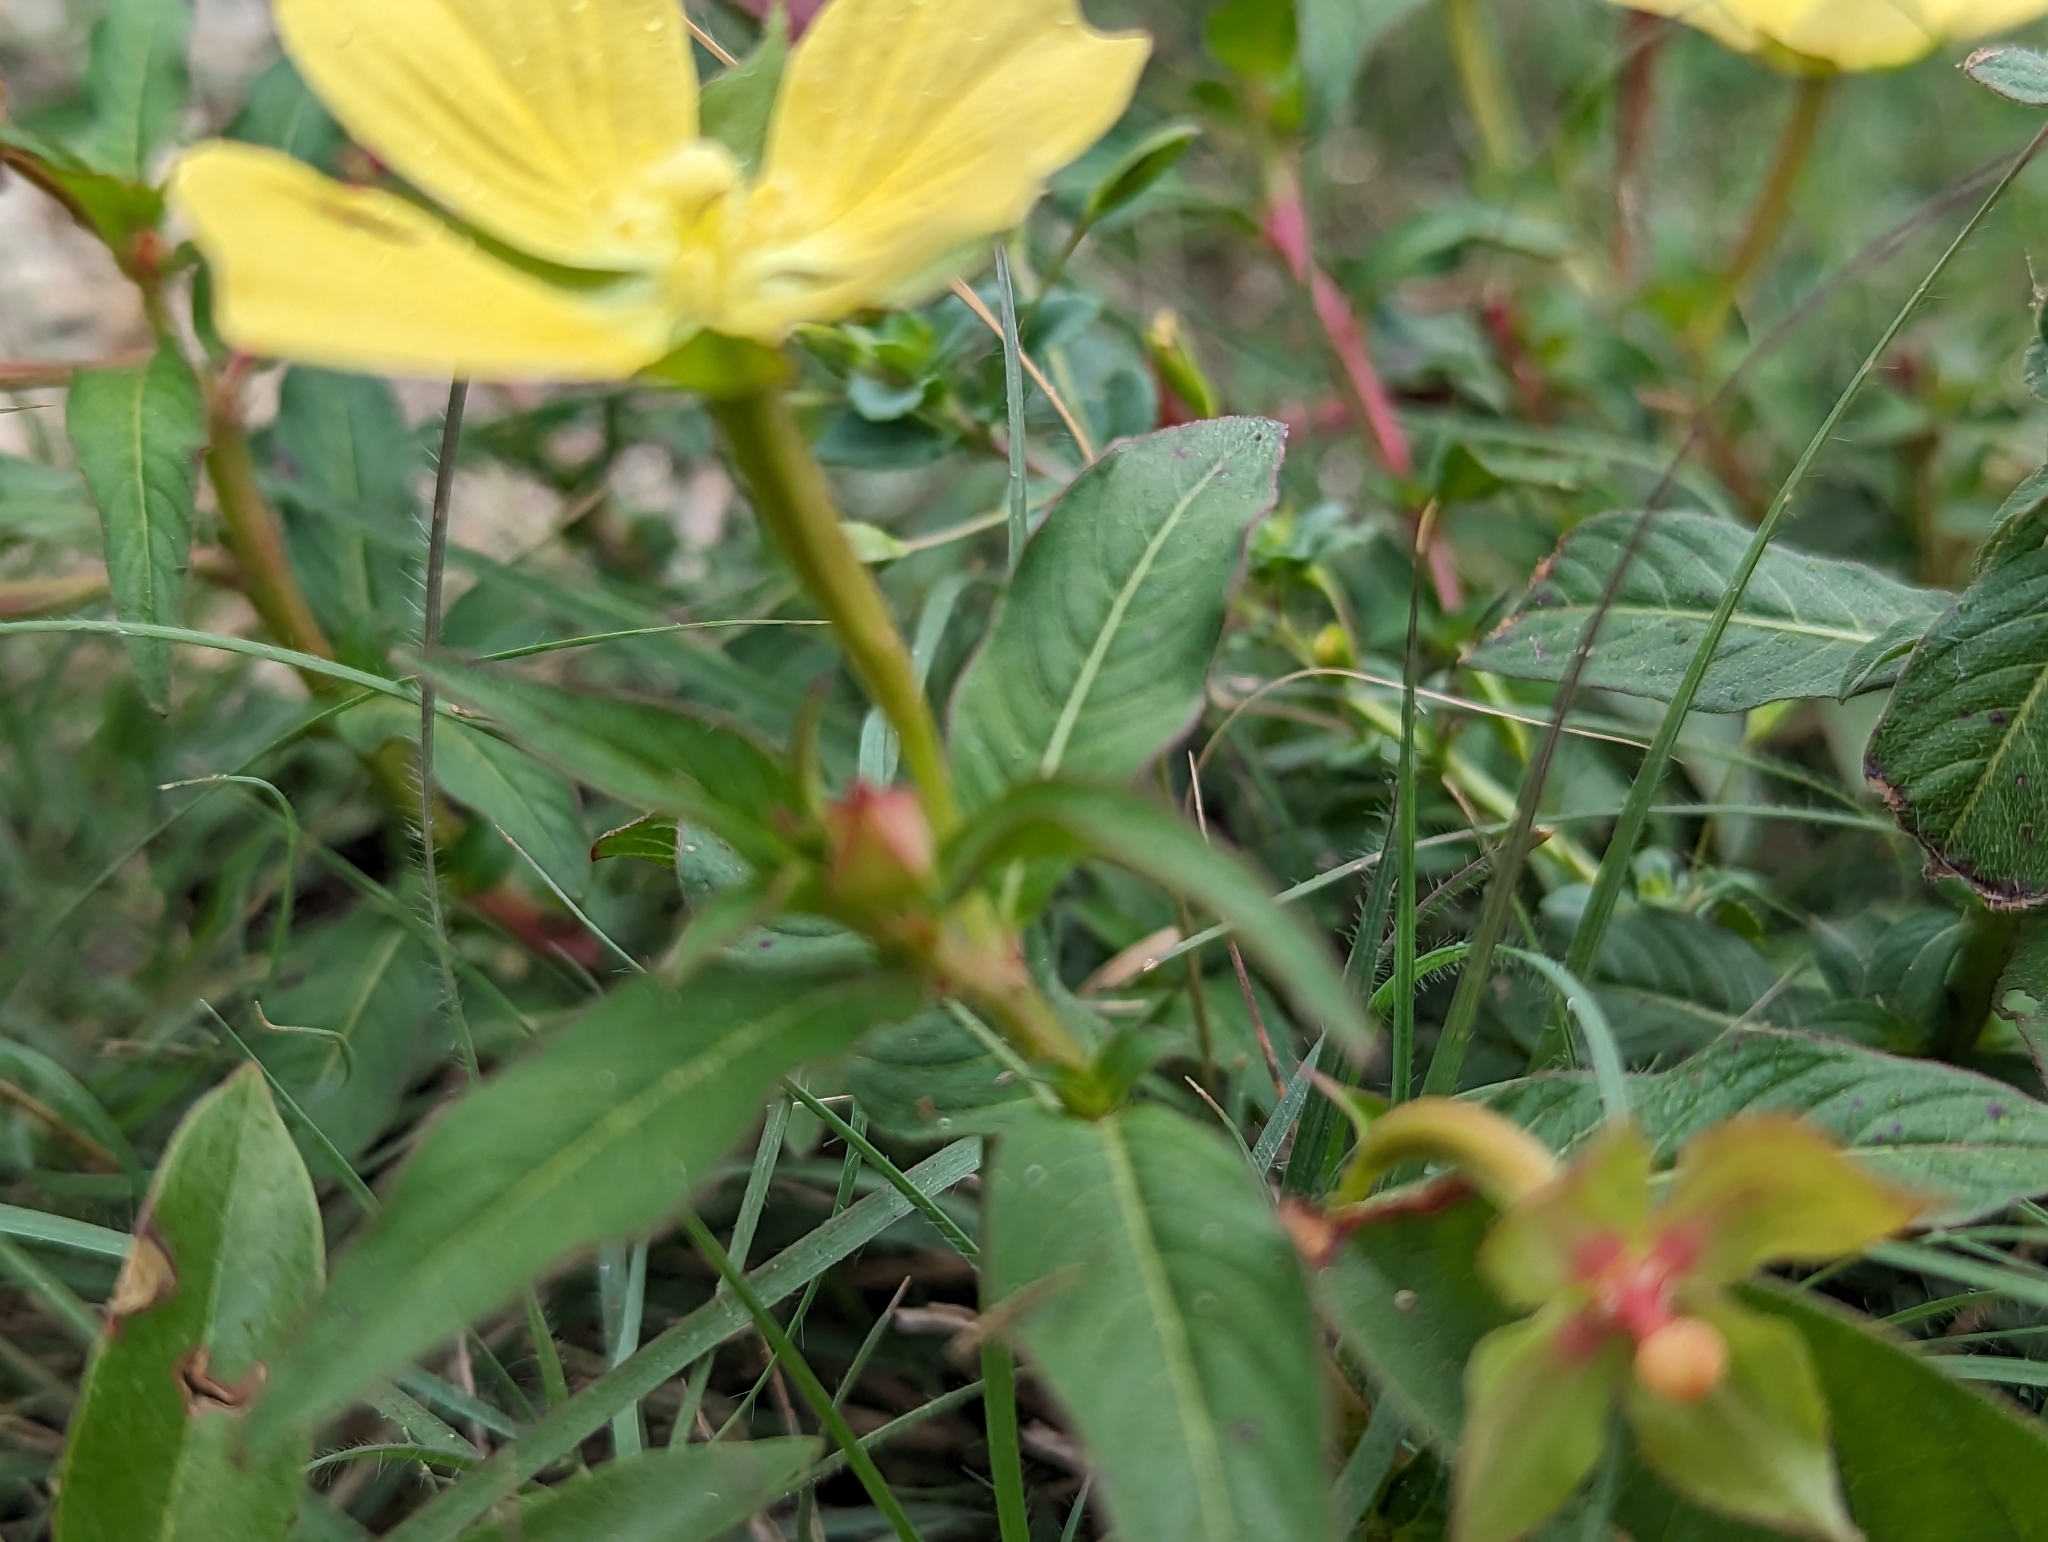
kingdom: Plantae
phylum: Tracheophyta
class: Magnoliopsida
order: Myrtales
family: Onagraceae
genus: Ludwigia
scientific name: Ludwigia octovalvis
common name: Water-primrose
